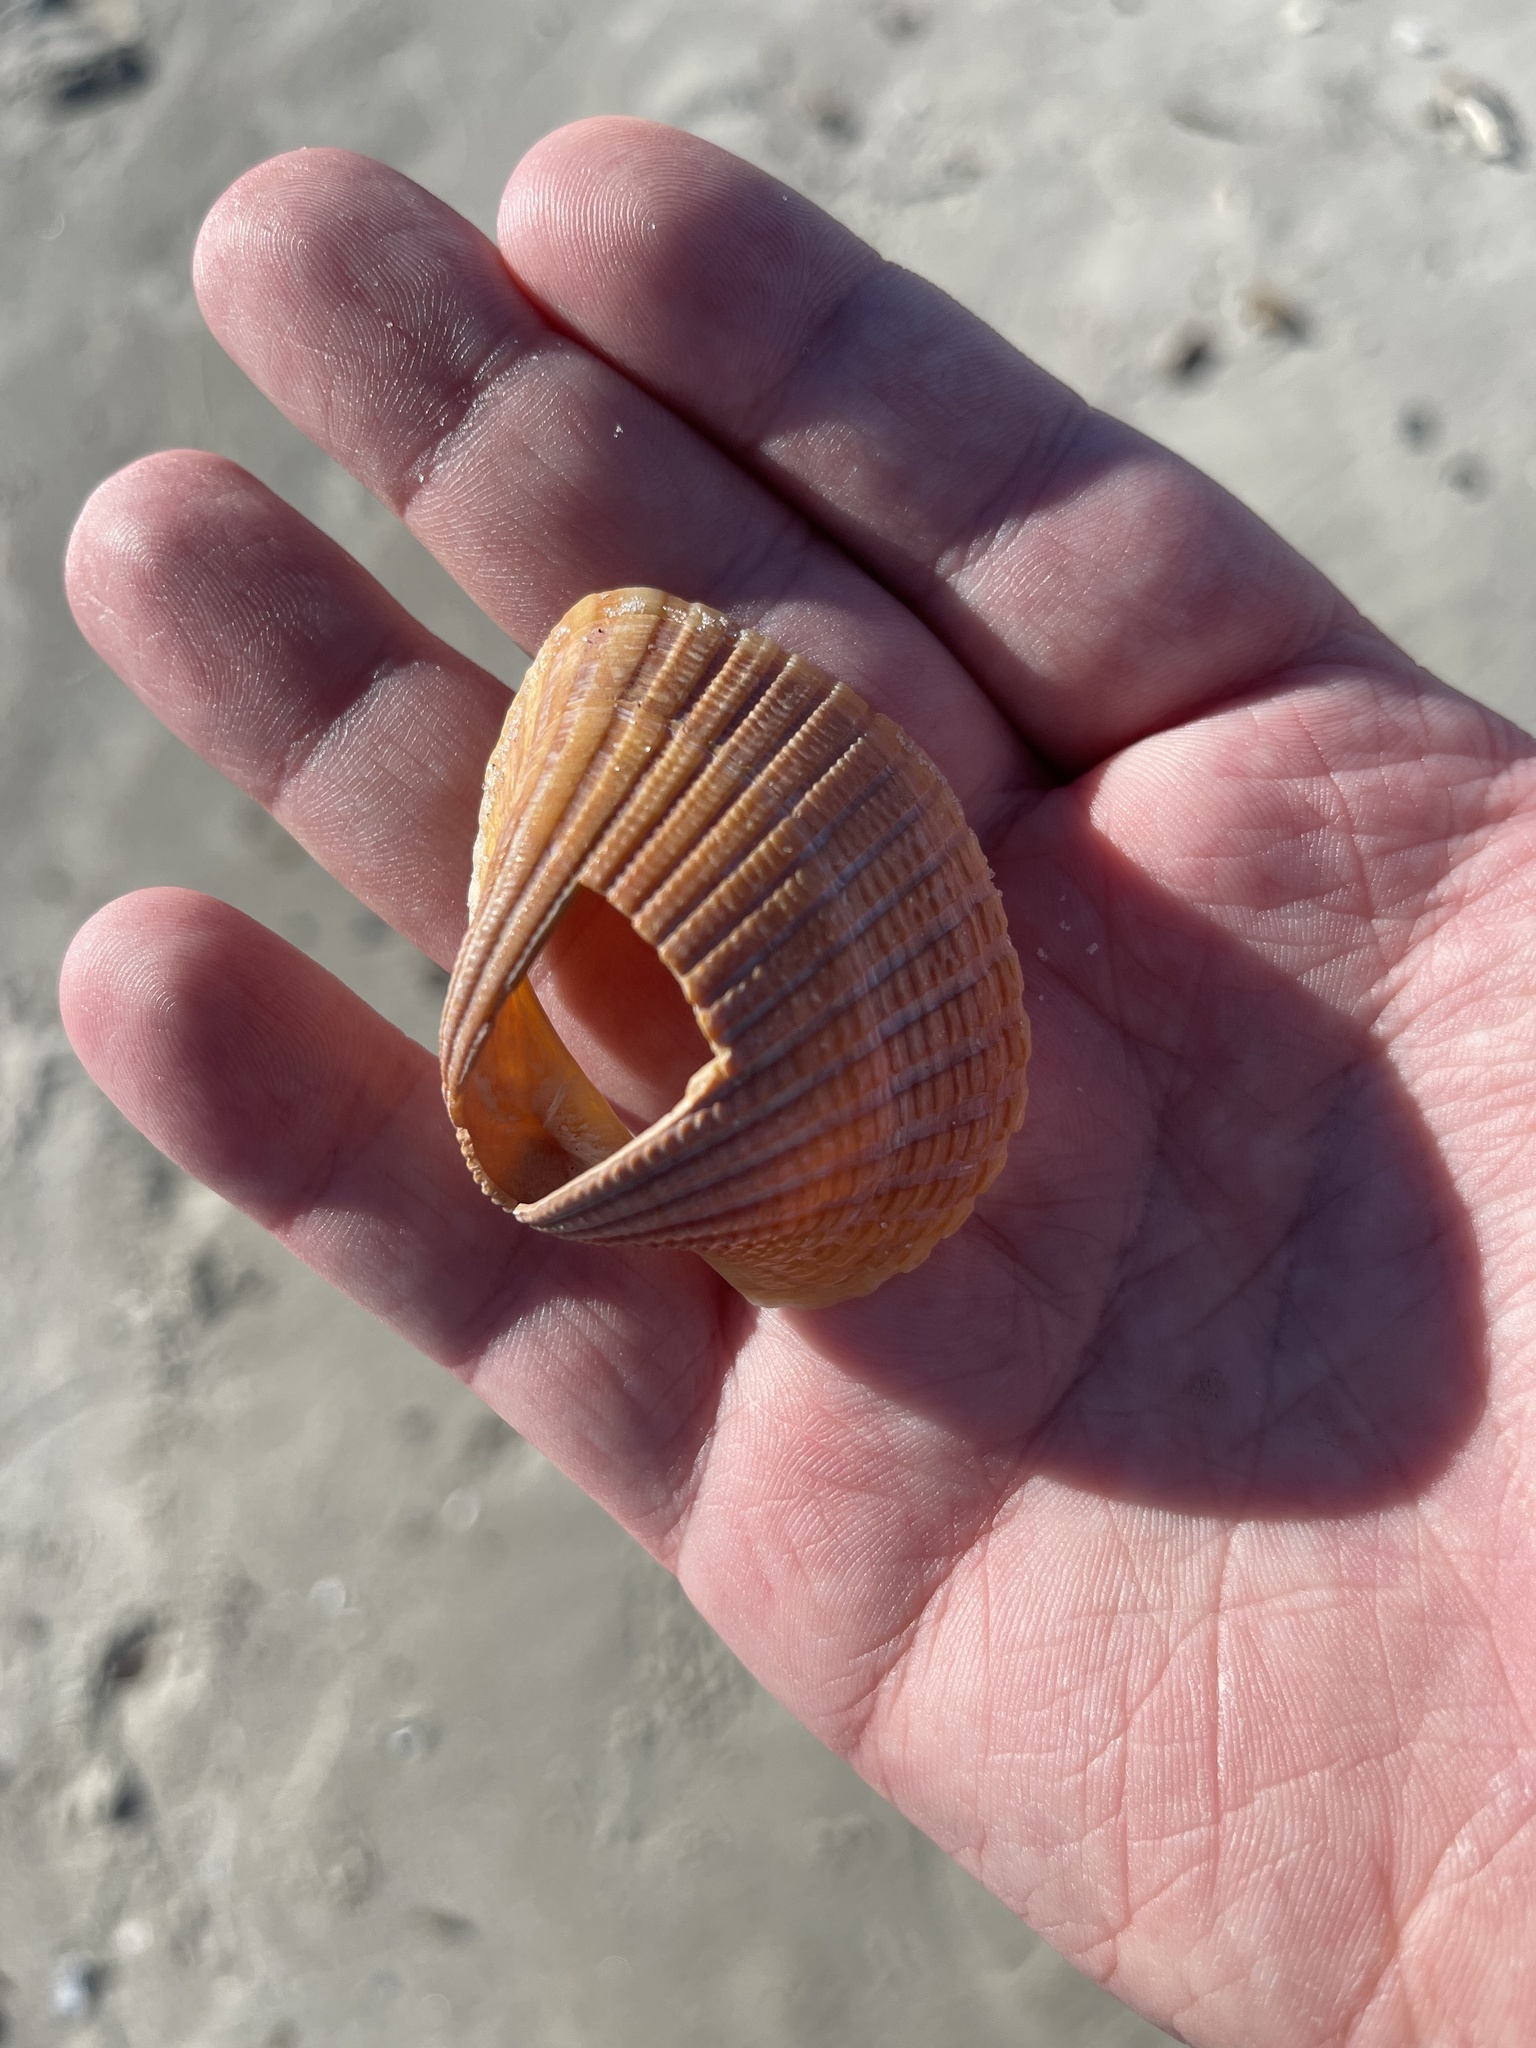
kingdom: Animalia
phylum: Mollusca
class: Bivalvia
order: Arcida
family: Arcidae
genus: Anadara
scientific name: Anadara brasiliana
